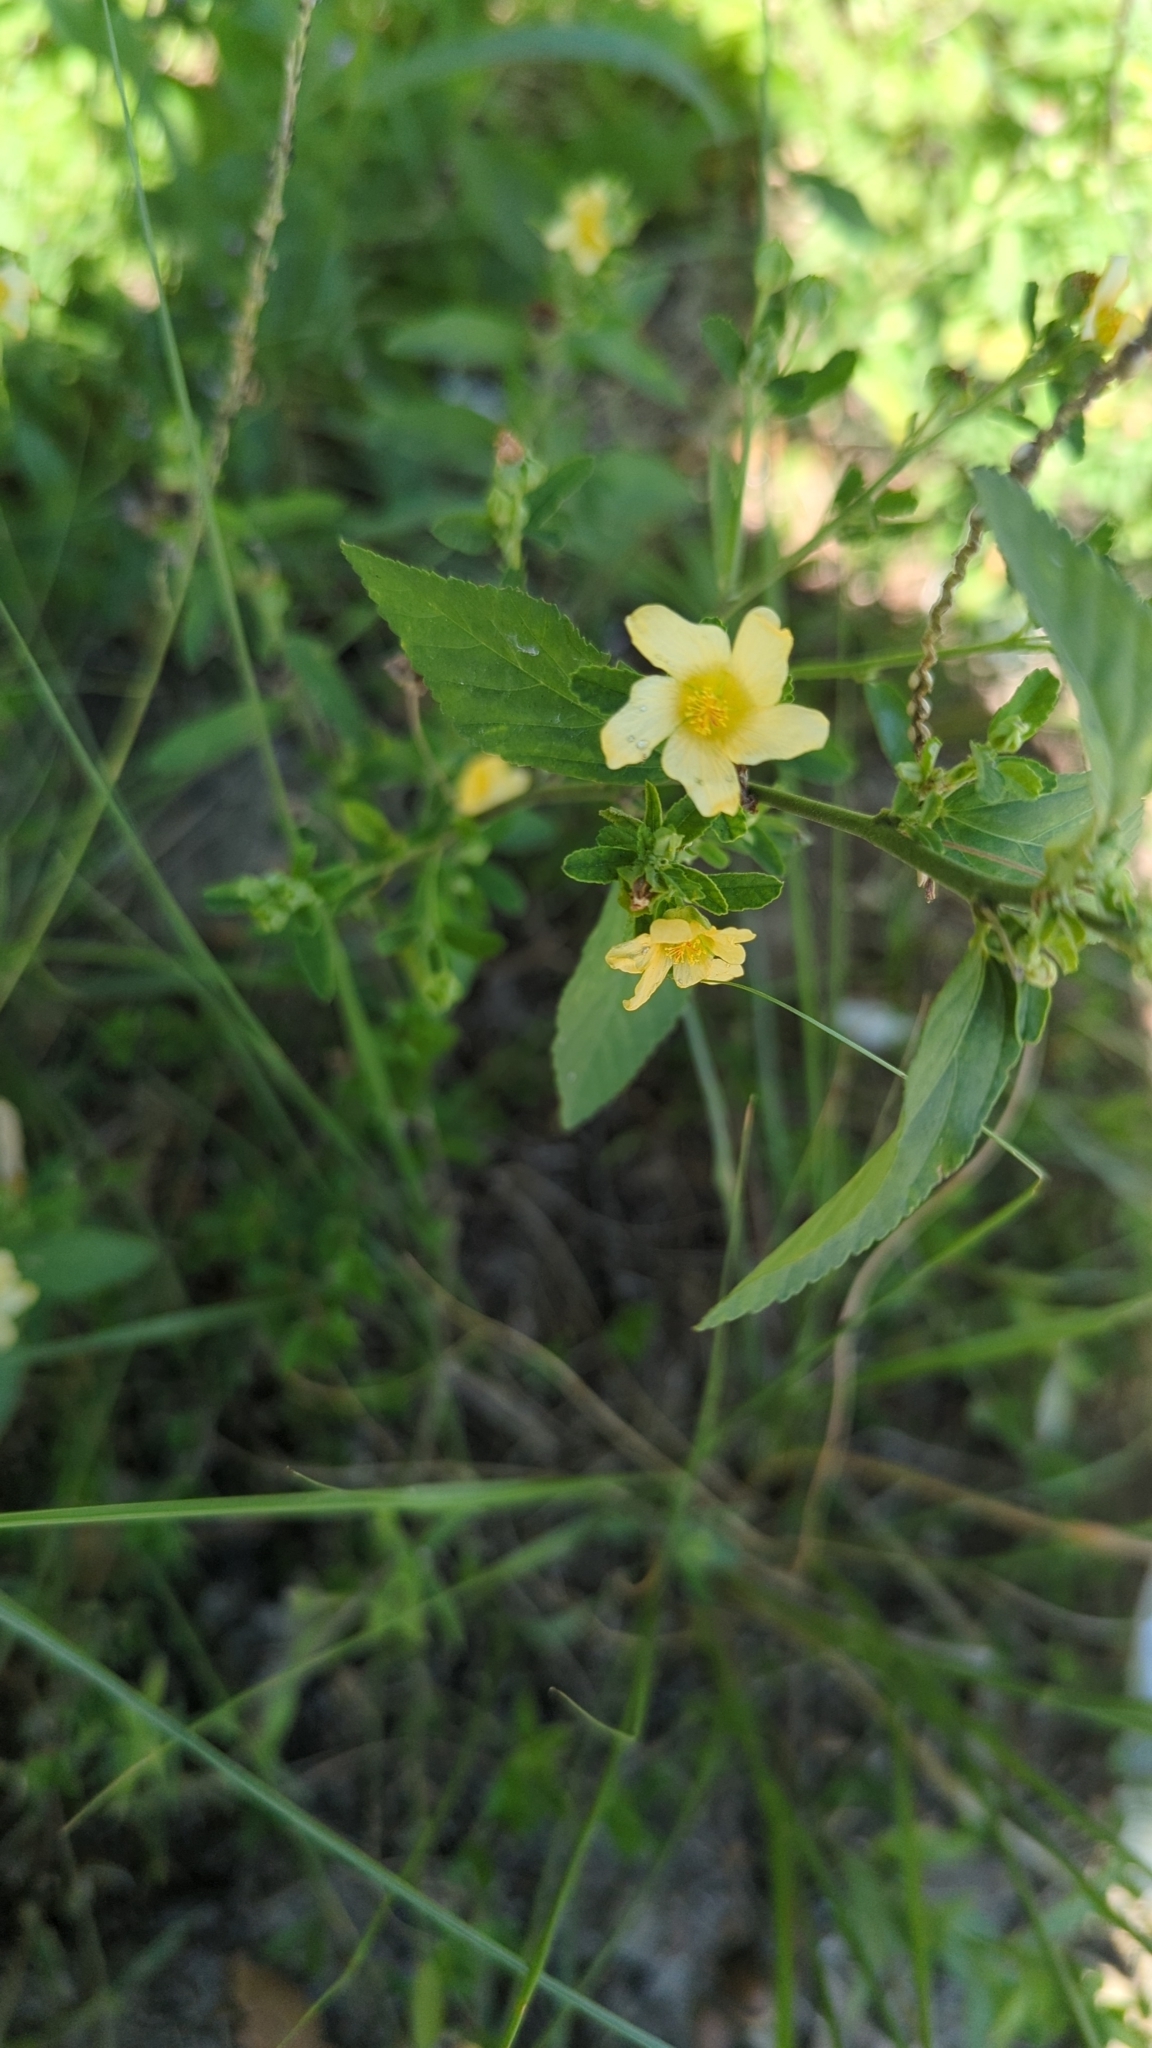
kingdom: Plantae
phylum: Tracheophyta
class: Magnoliopsida
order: Malvales
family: Malvaceae
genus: Sida
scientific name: Sida rhombifolia
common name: Queensland-hemp
